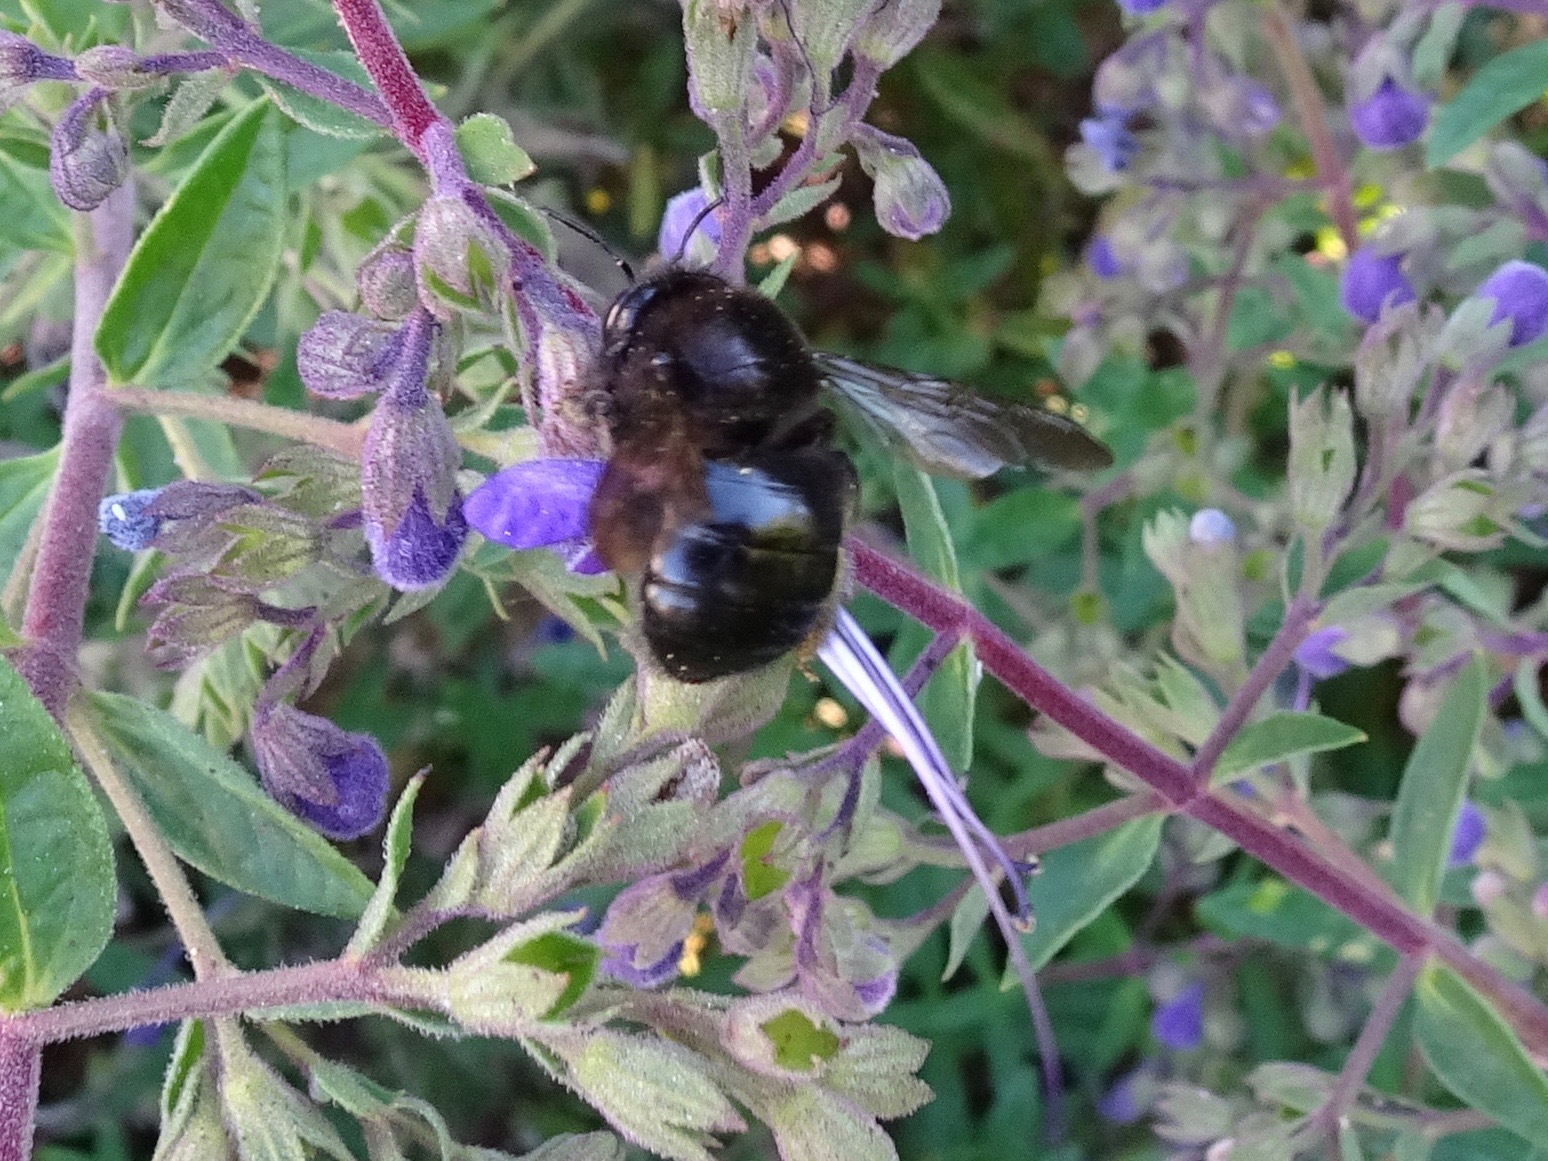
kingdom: Animalia
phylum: Arthropoda
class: Insecta
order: Hymenoptera
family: Apidae
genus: Xylocopa
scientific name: Xylocopa tabaniformis
